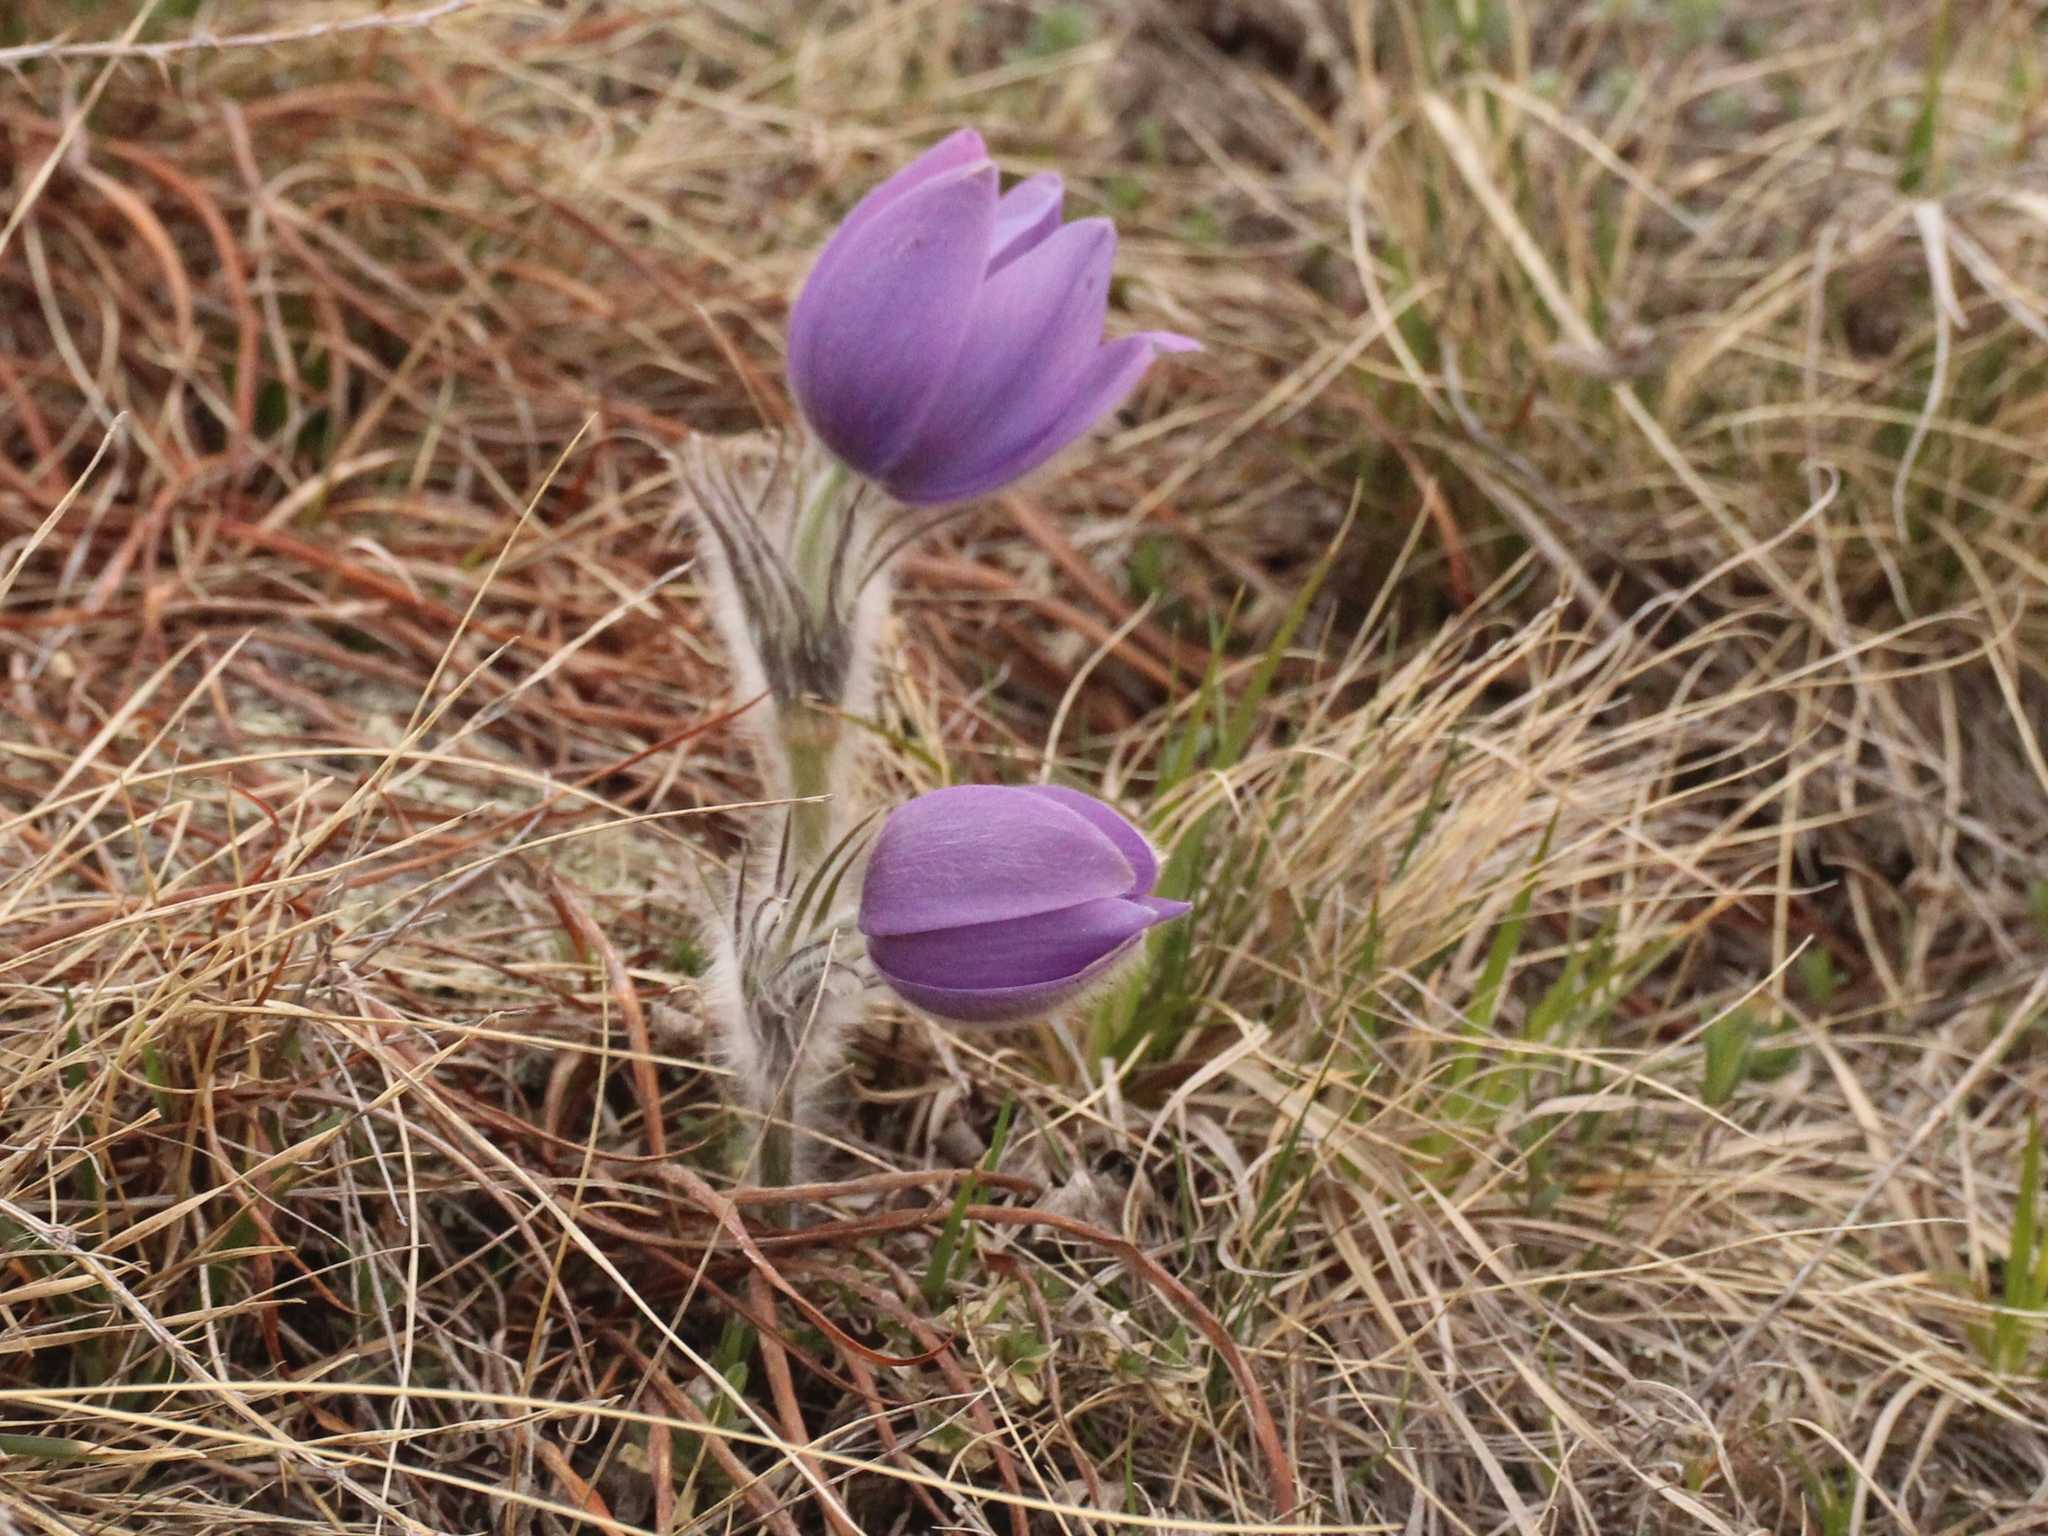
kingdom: Plantae
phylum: Tracheophyta
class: Magnoliopsida
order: Ranunculales
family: Ranunculaceae
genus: Pulsatilla
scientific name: Pulsatilla patens
